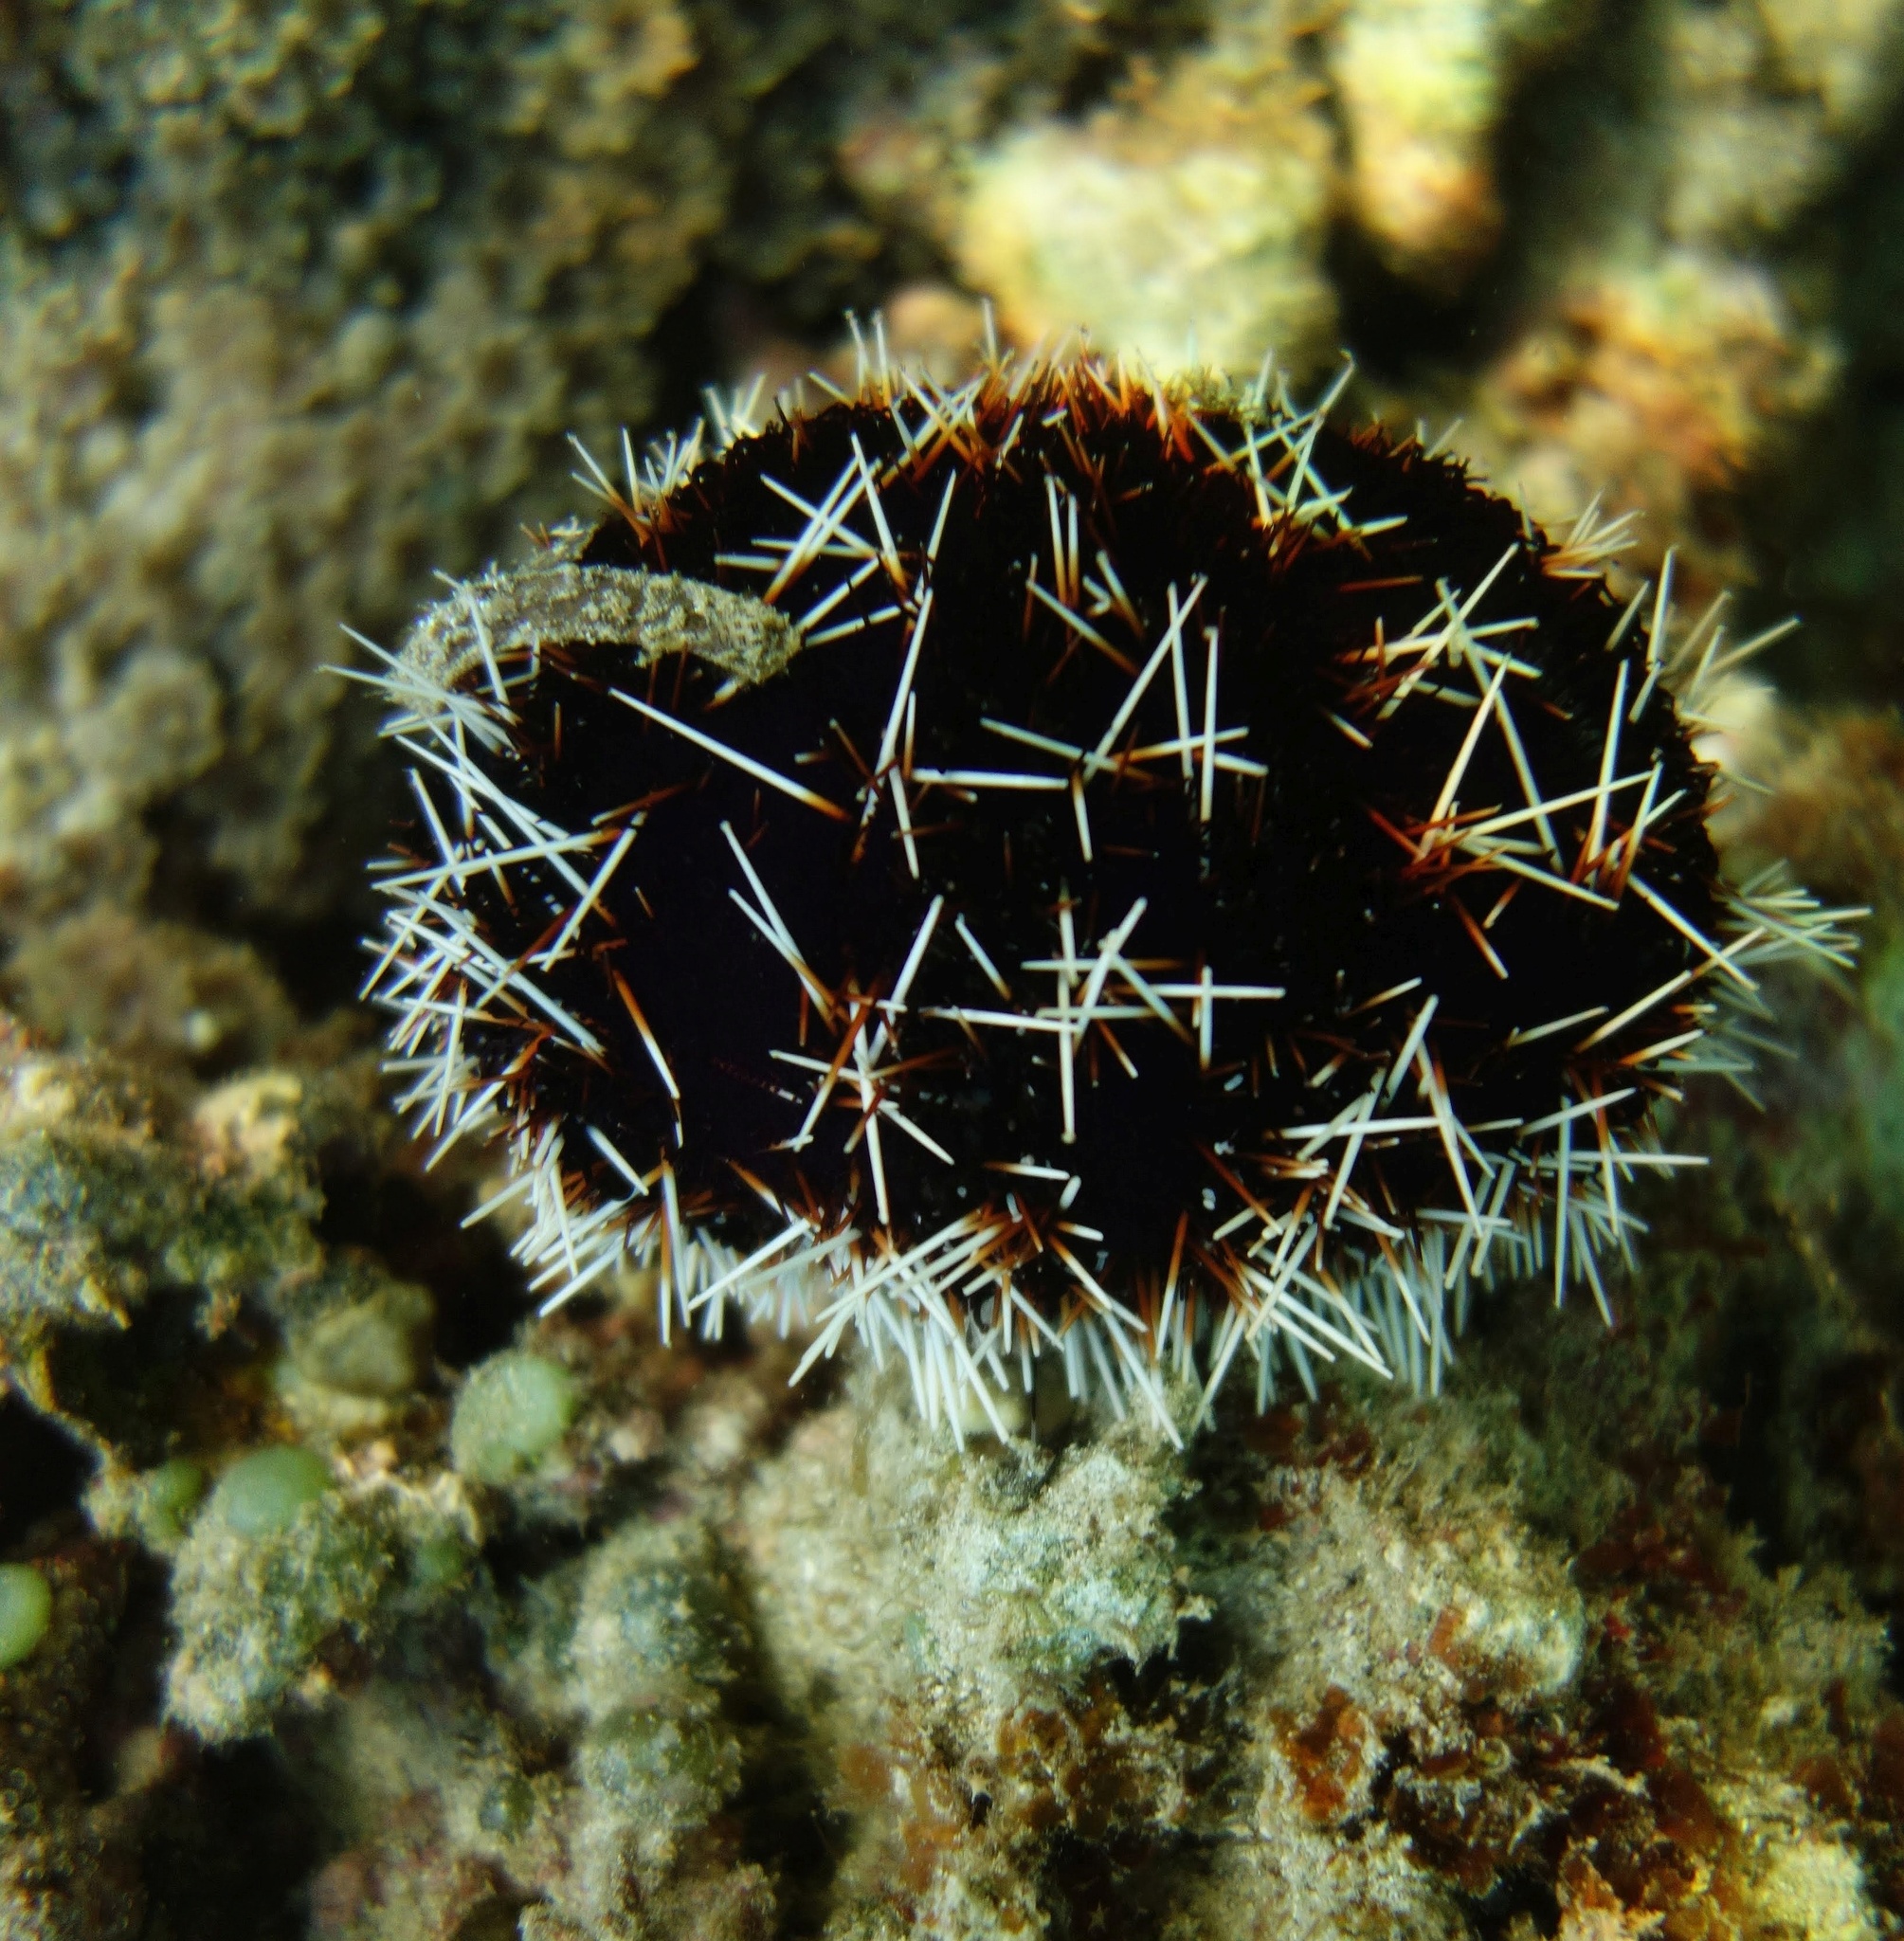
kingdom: Animalia
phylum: Echinodermata
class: Echinoidea
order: Camarodonta
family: Toxopneustidae
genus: Tripneustes
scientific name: Tripneustes gratilla
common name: Bischofsmützenseeigel
